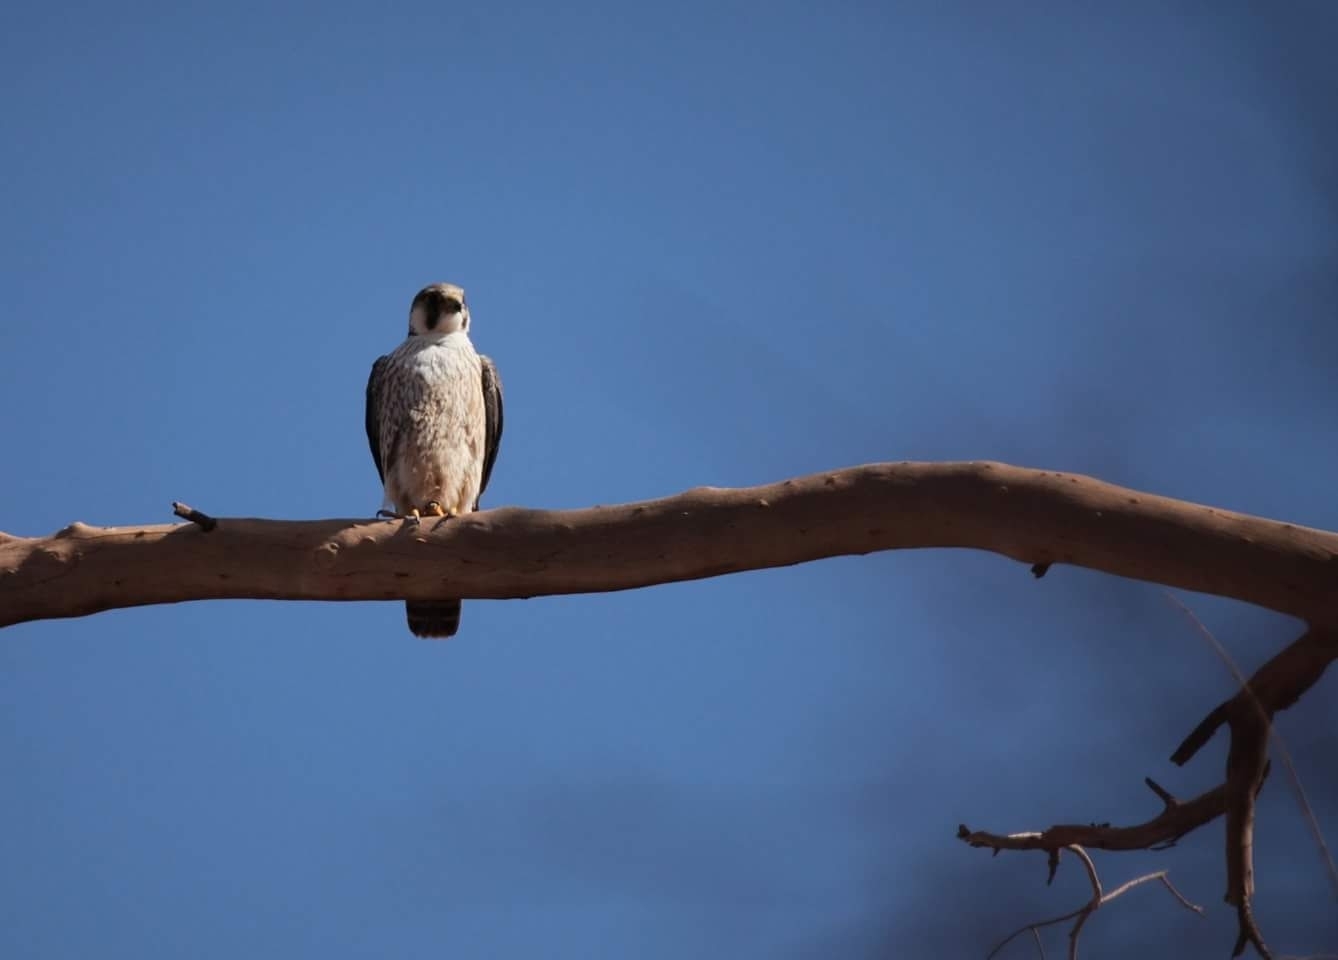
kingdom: Animalia
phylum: Chordata
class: Aves
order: Falconiformes
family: Falconidae
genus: Falco
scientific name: Falco peregrinus
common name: Peregrine falcon
